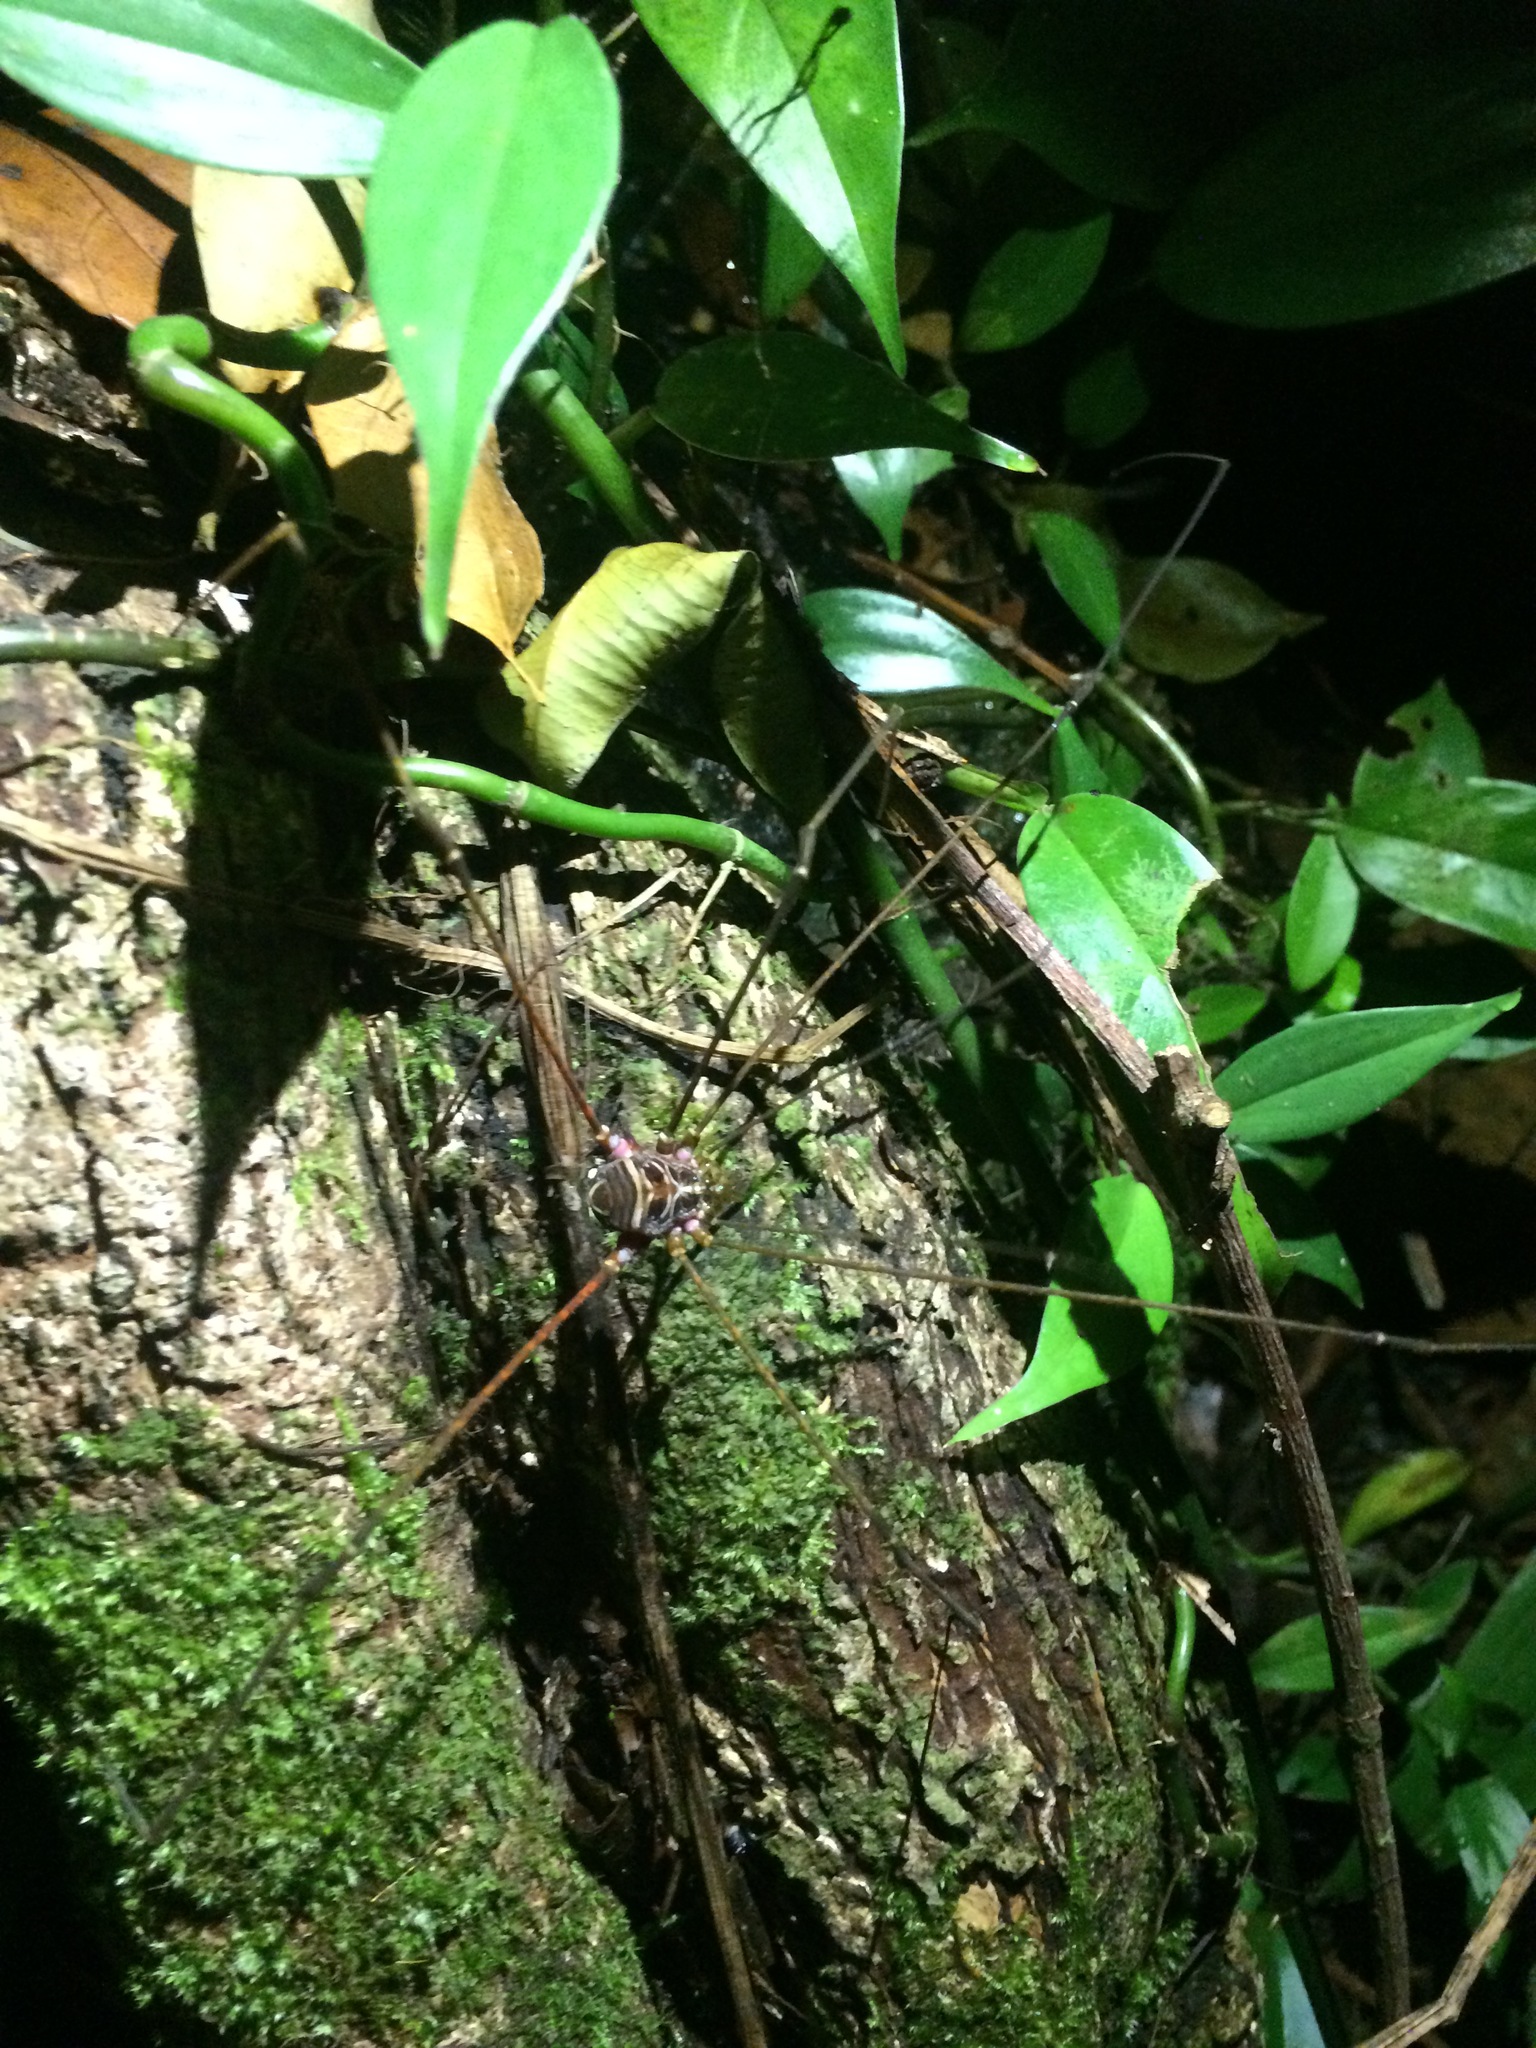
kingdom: Animalia
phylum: Arthropoda
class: Arachnida
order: Opiliones
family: Gonyleptidae
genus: Mitogoniella
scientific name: Mitogoniella modesta
